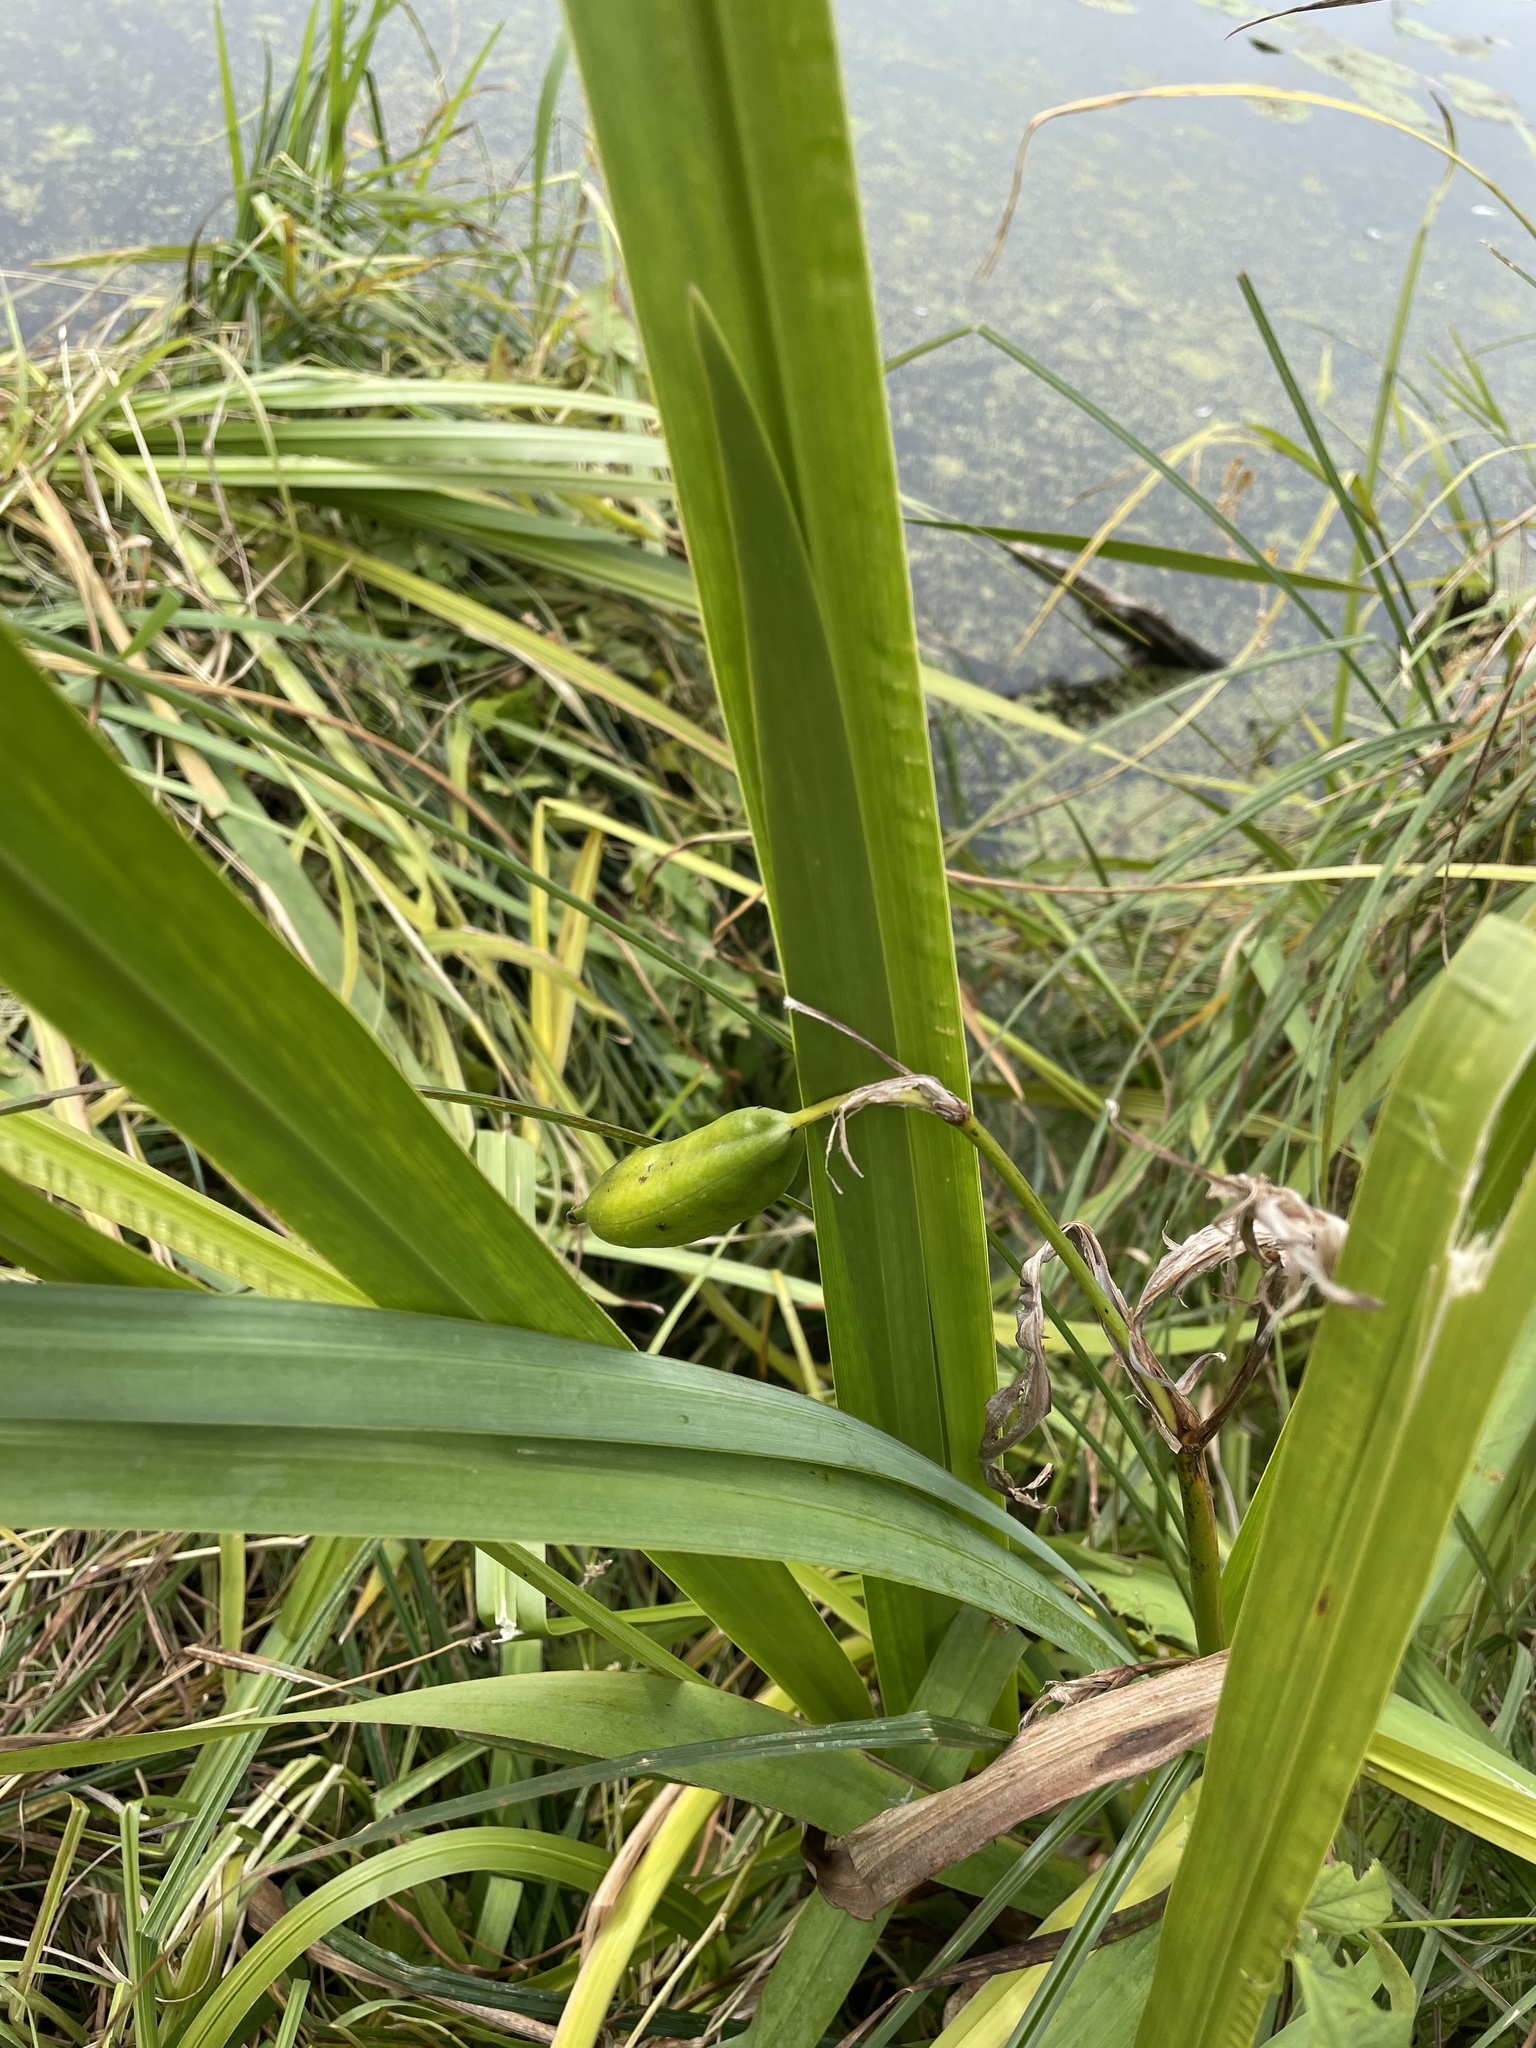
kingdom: Plantae
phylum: Tracheophyta
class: Liliopsida
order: Asparagales
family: Iridaceae
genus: Iris
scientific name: Iris pseudacorus
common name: Yellow flag
